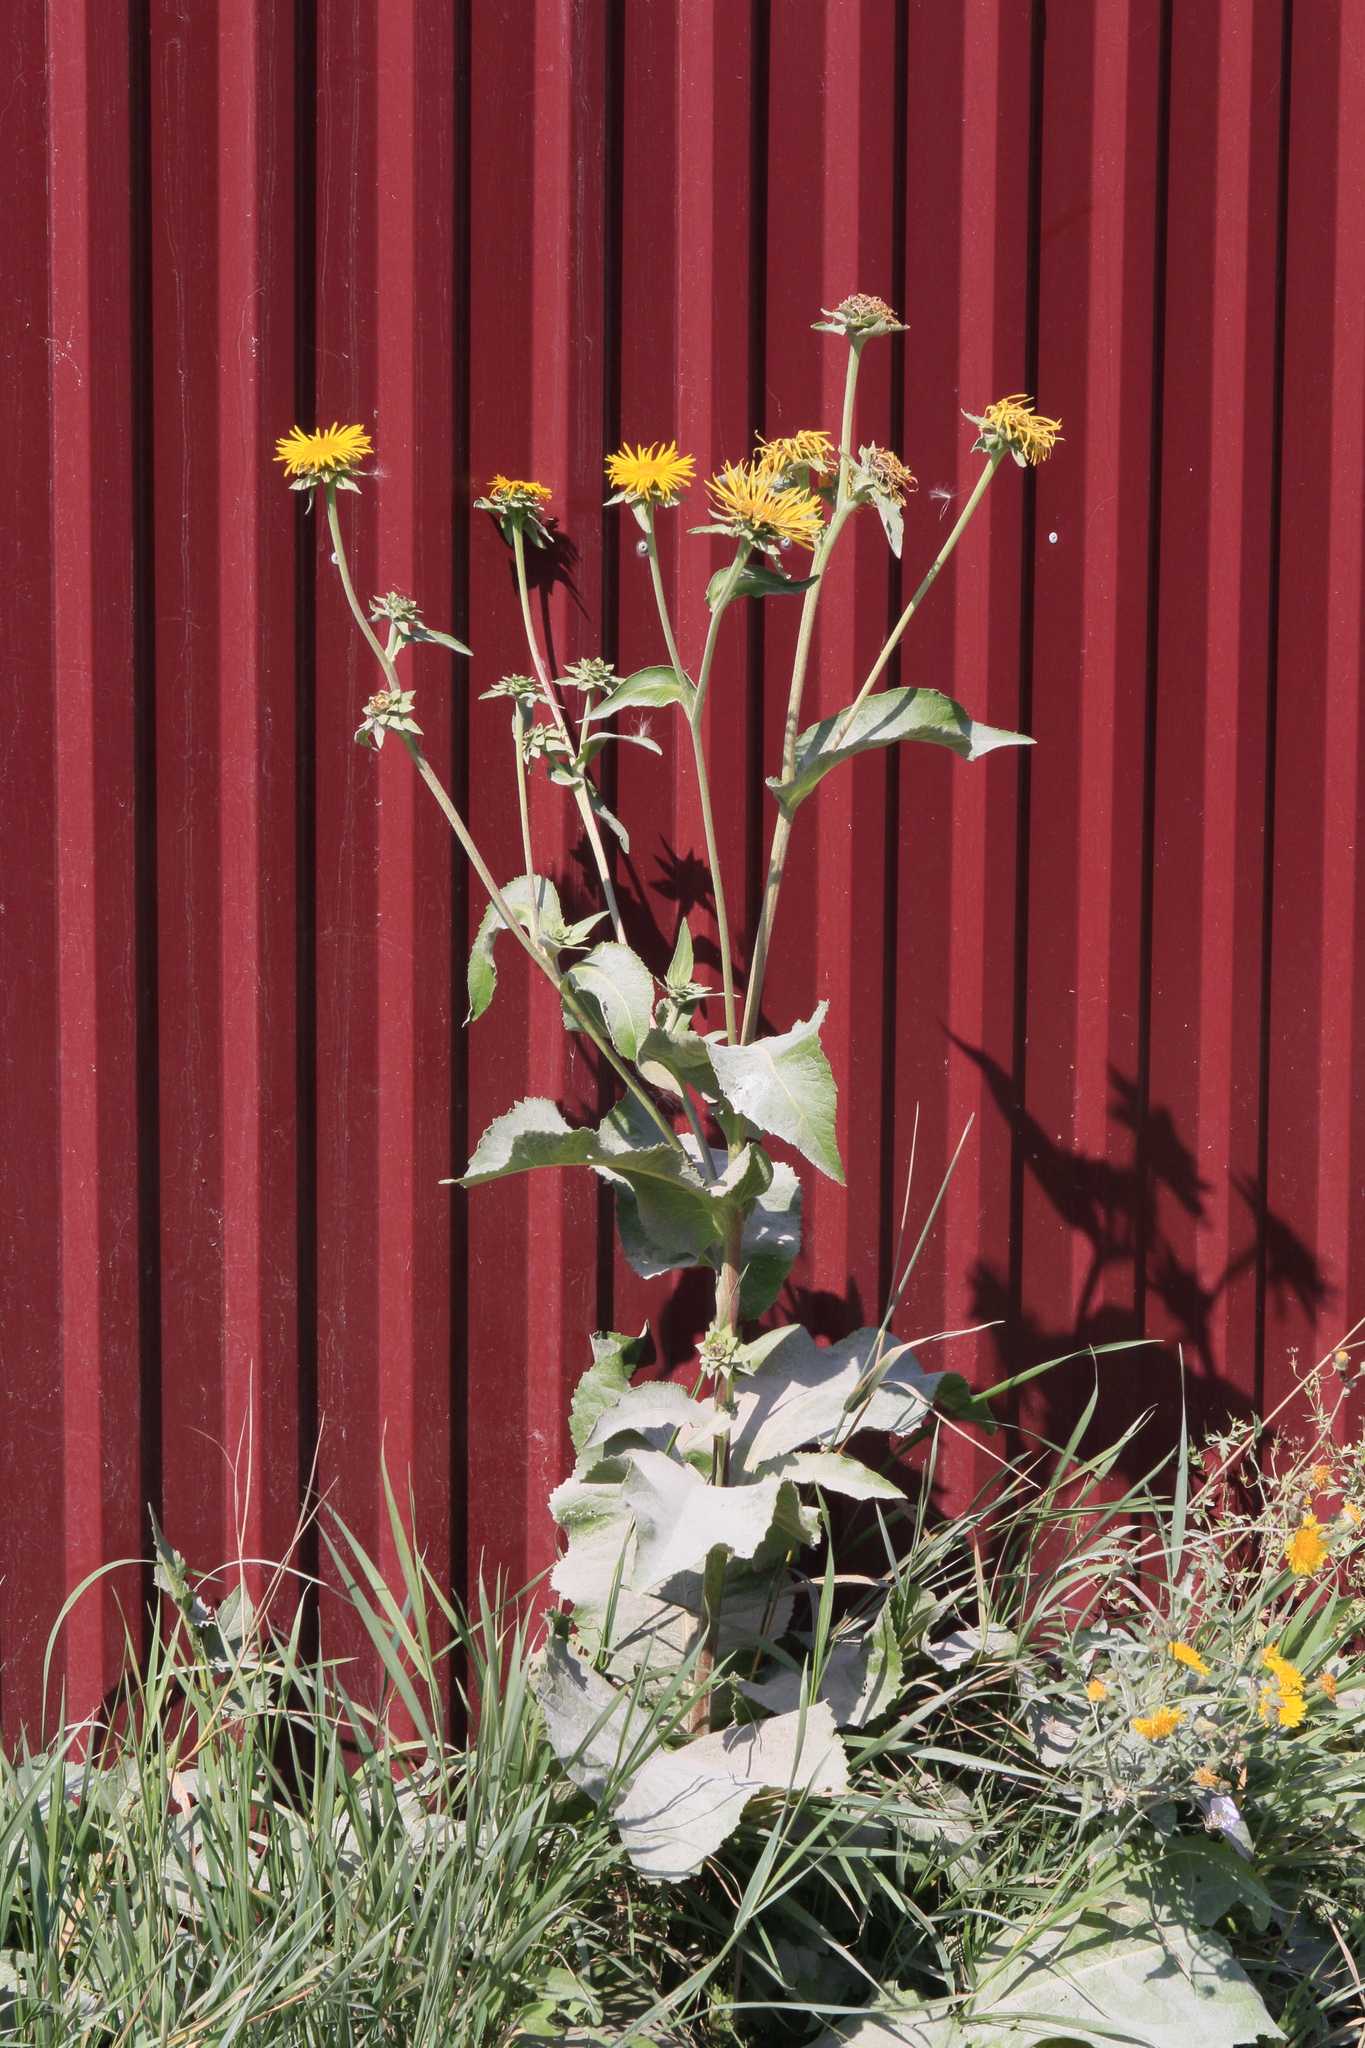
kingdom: Plantae
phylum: Tracheophyta
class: Magnoliopsida
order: Asterales
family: Asteraceae
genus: Inula
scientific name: Inula helenium
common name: Elecampane
